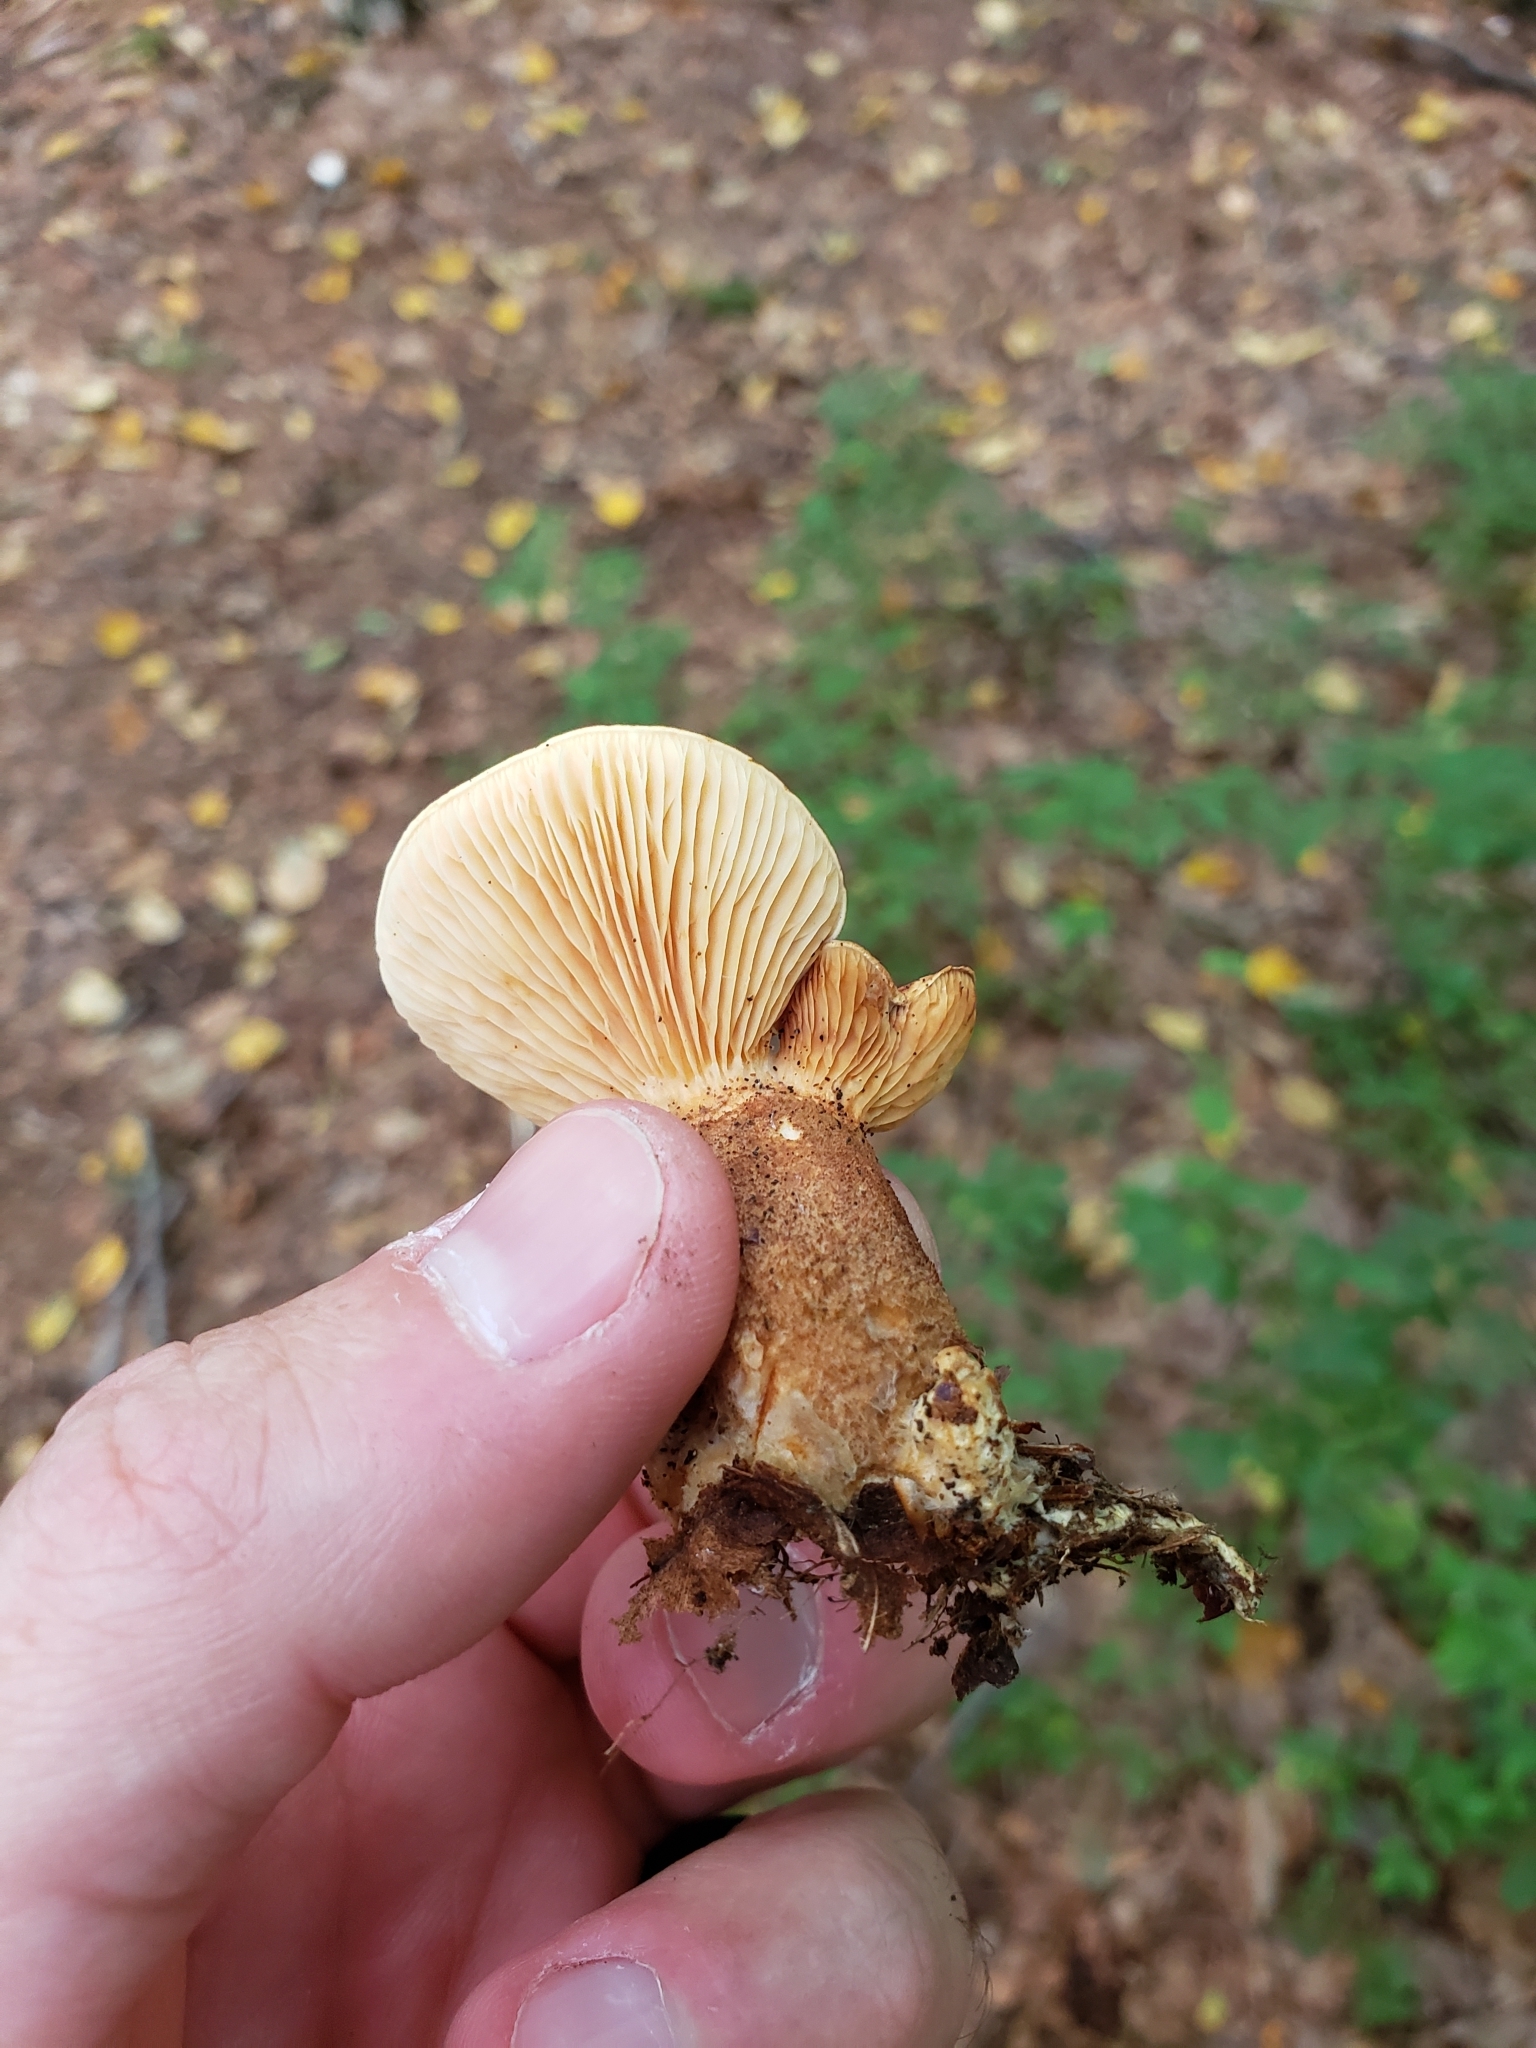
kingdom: Fungi
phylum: Basidiomycota
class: Agaricomycetes
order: Boletales
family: Tapinellaceae
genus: Tapinella
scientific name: Tapinella atrotomentosa
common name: Velvet rollrim
